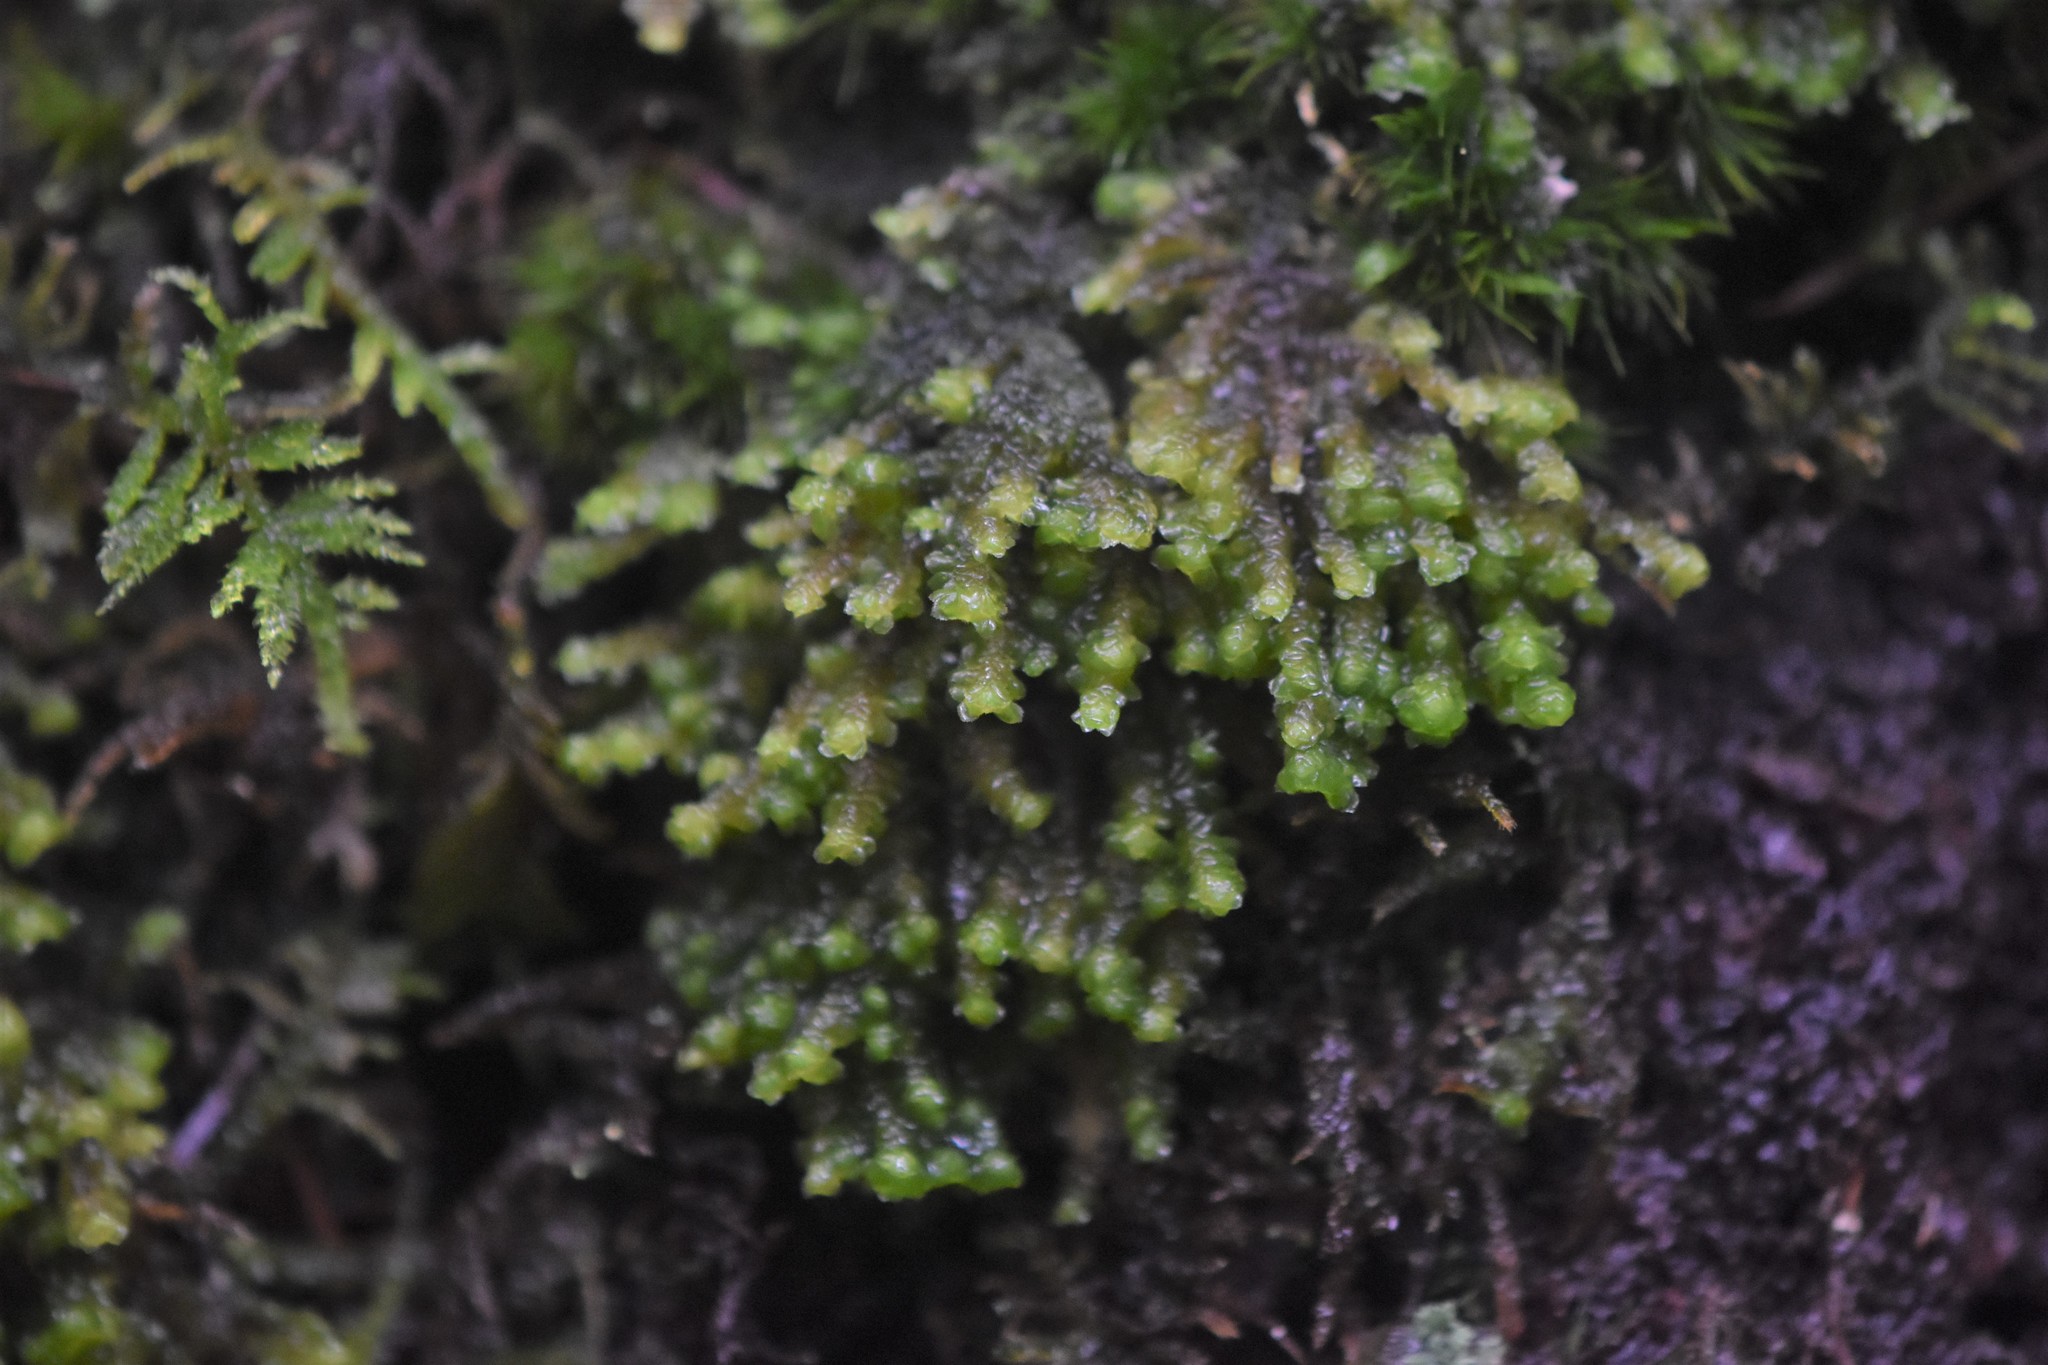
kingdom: Plantae
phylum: Marchantiophyta
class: Jungermanniopsida
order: Jungermanniales
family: Scapaniaceae
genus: Scapania
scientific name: Scapania bolanderi
